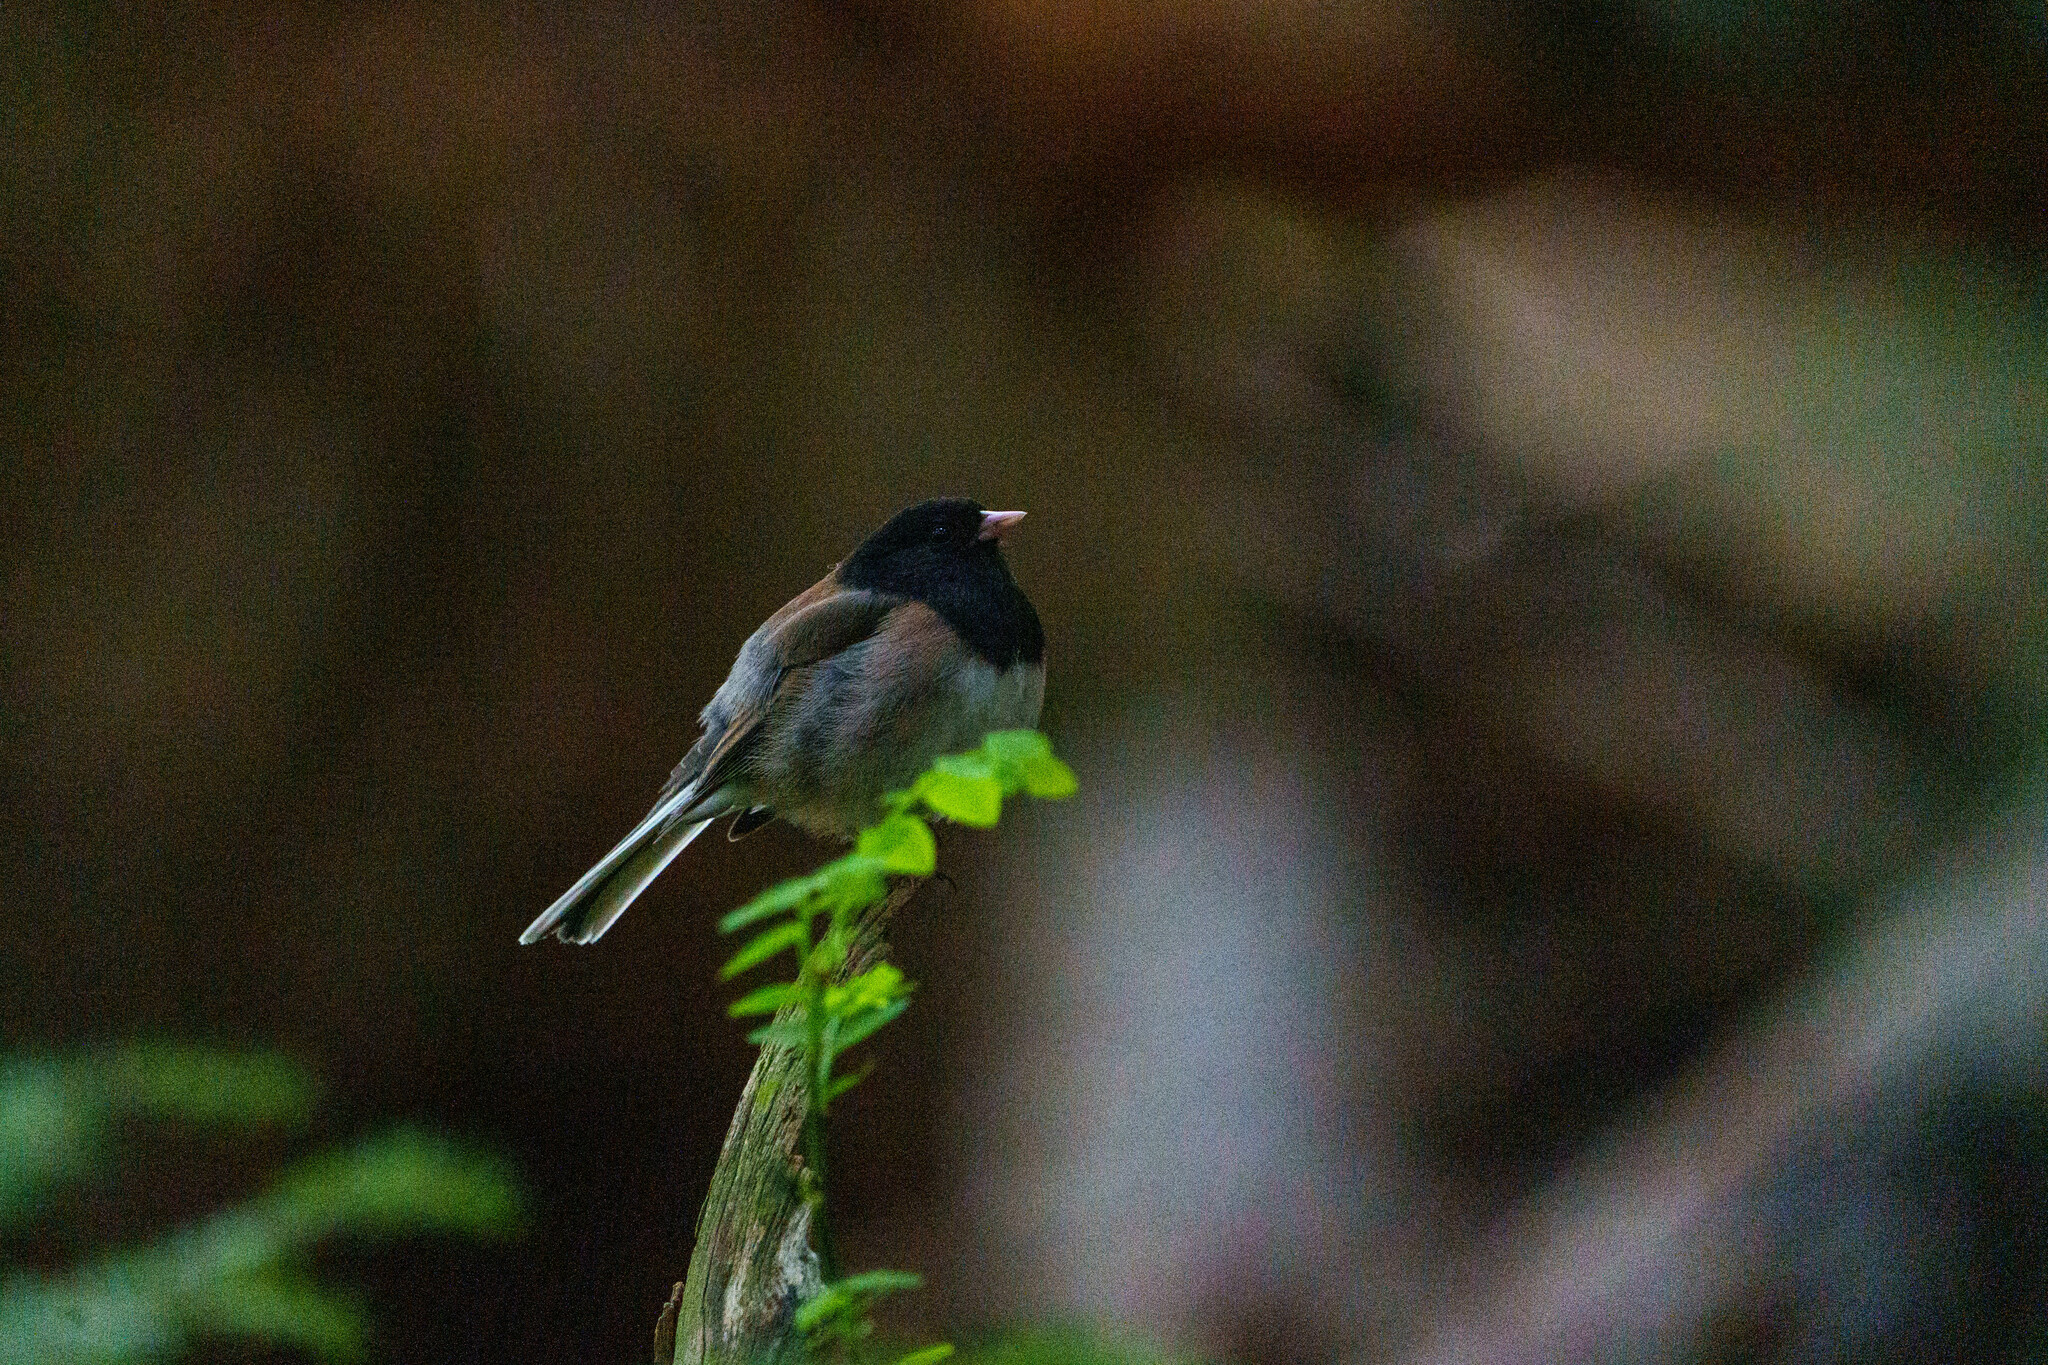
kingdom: Animalia
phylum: Chordata
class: Aves
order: Passeriformes
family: Passerellidae
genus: Junco
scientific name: Junco hyemalis
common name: Dark-eyed junco
